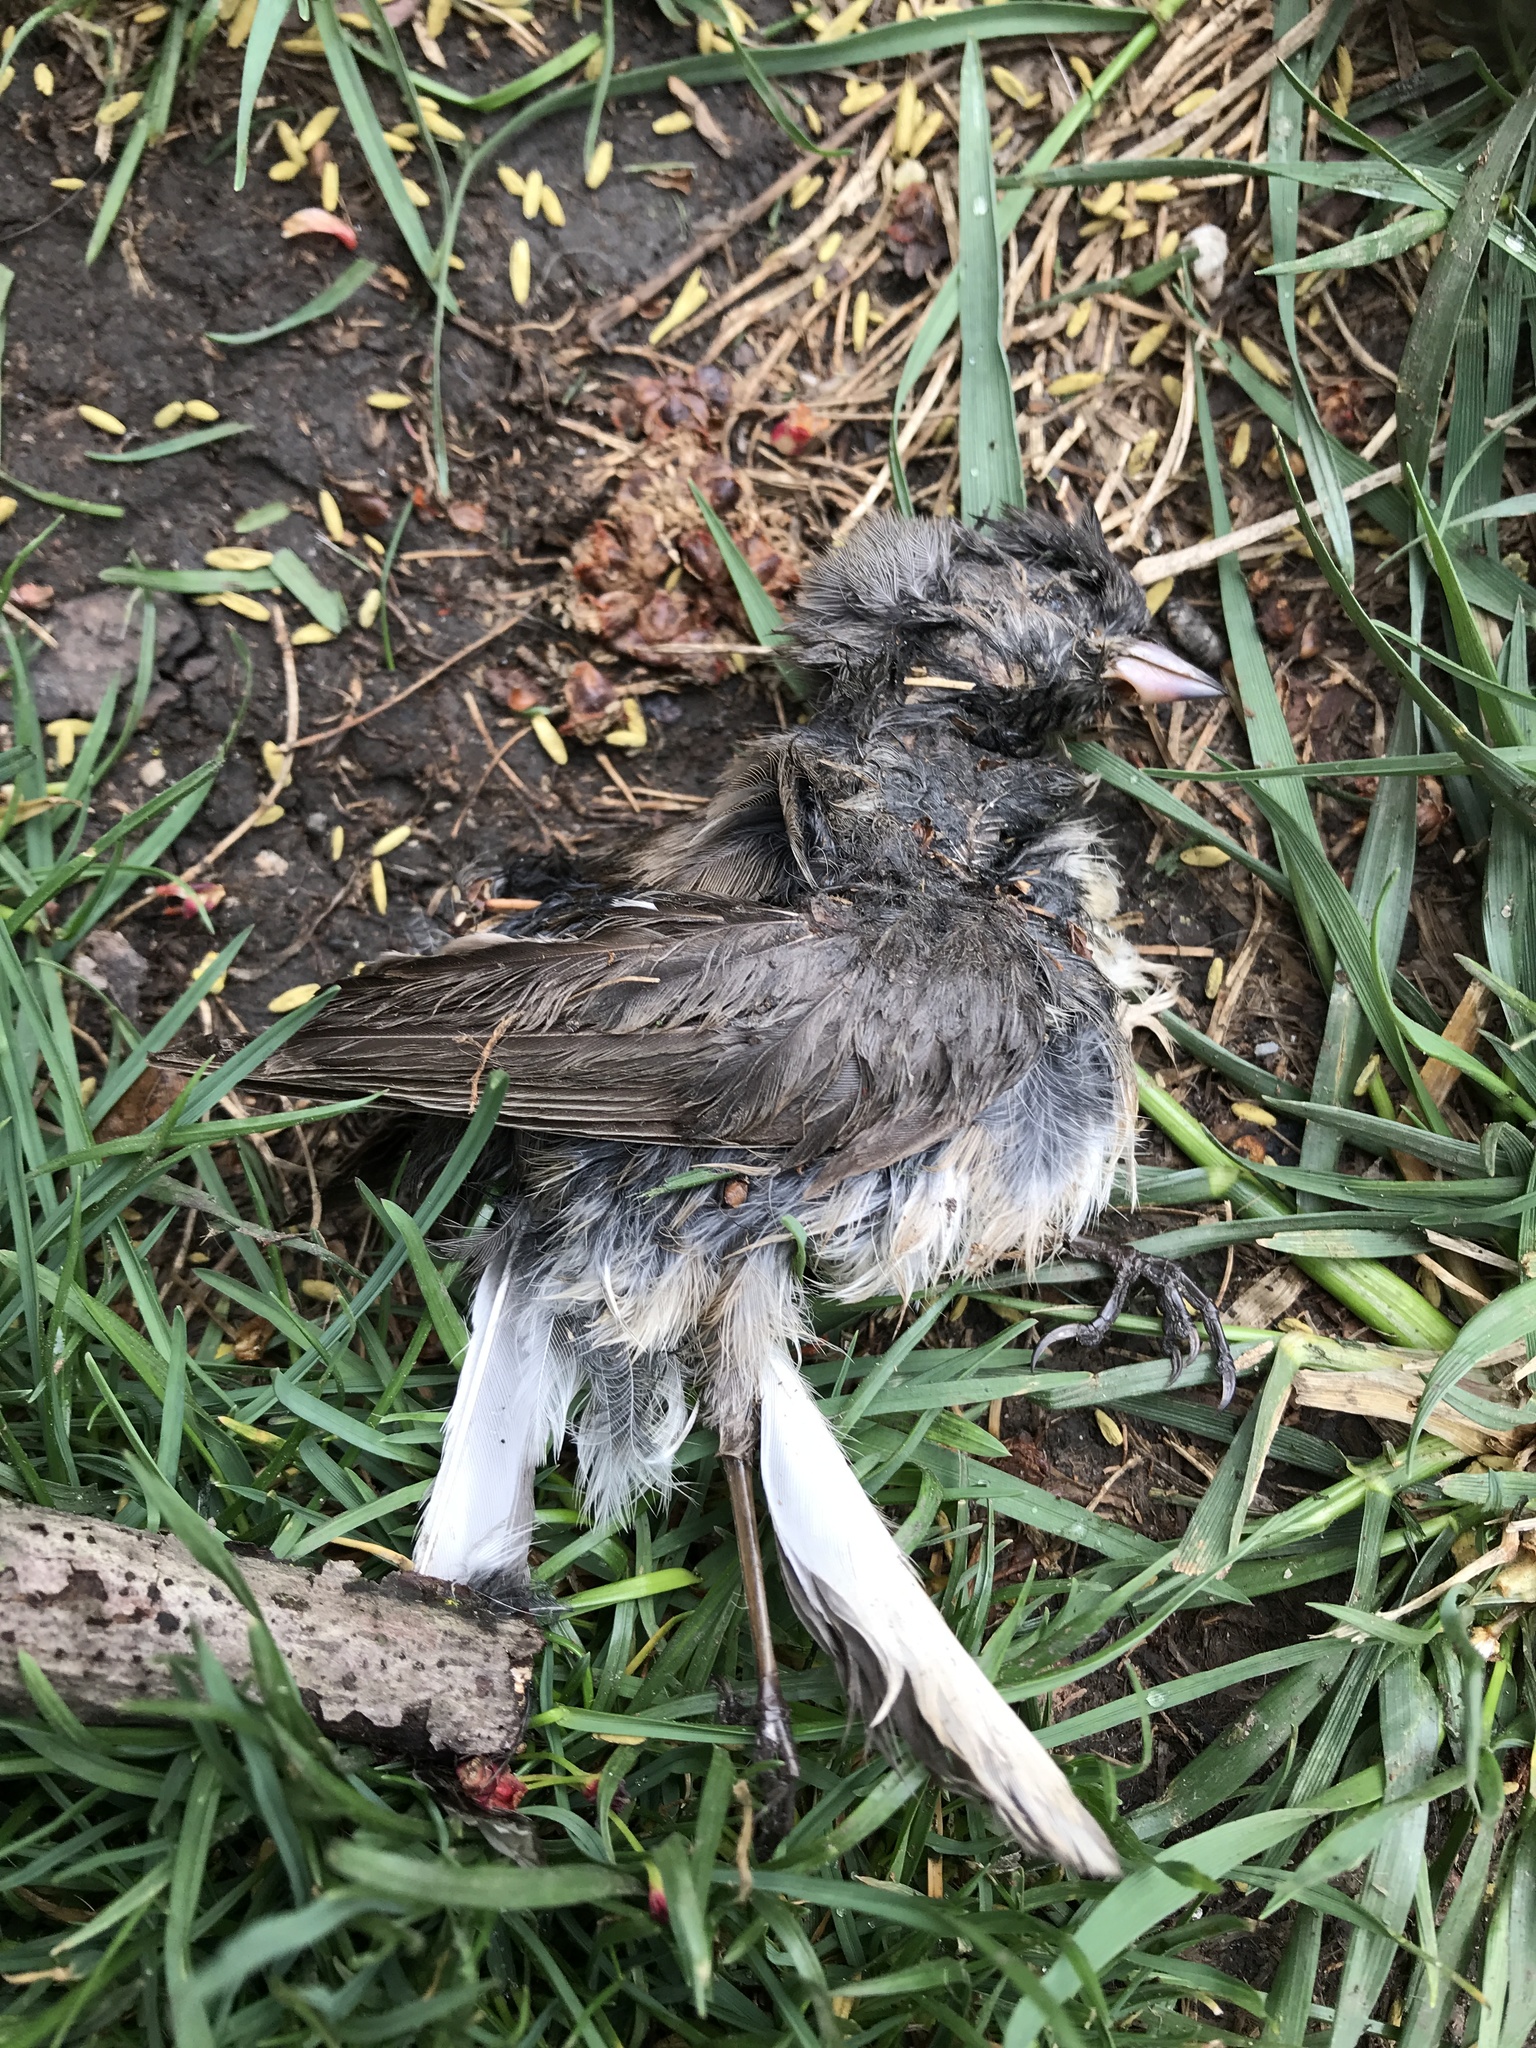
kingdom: Animalia
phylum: Chordata
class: Aves
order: Passeriformes
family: Passerellidae
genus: Junco
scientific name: Junco hyemalis
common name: Dark-eyed junco
